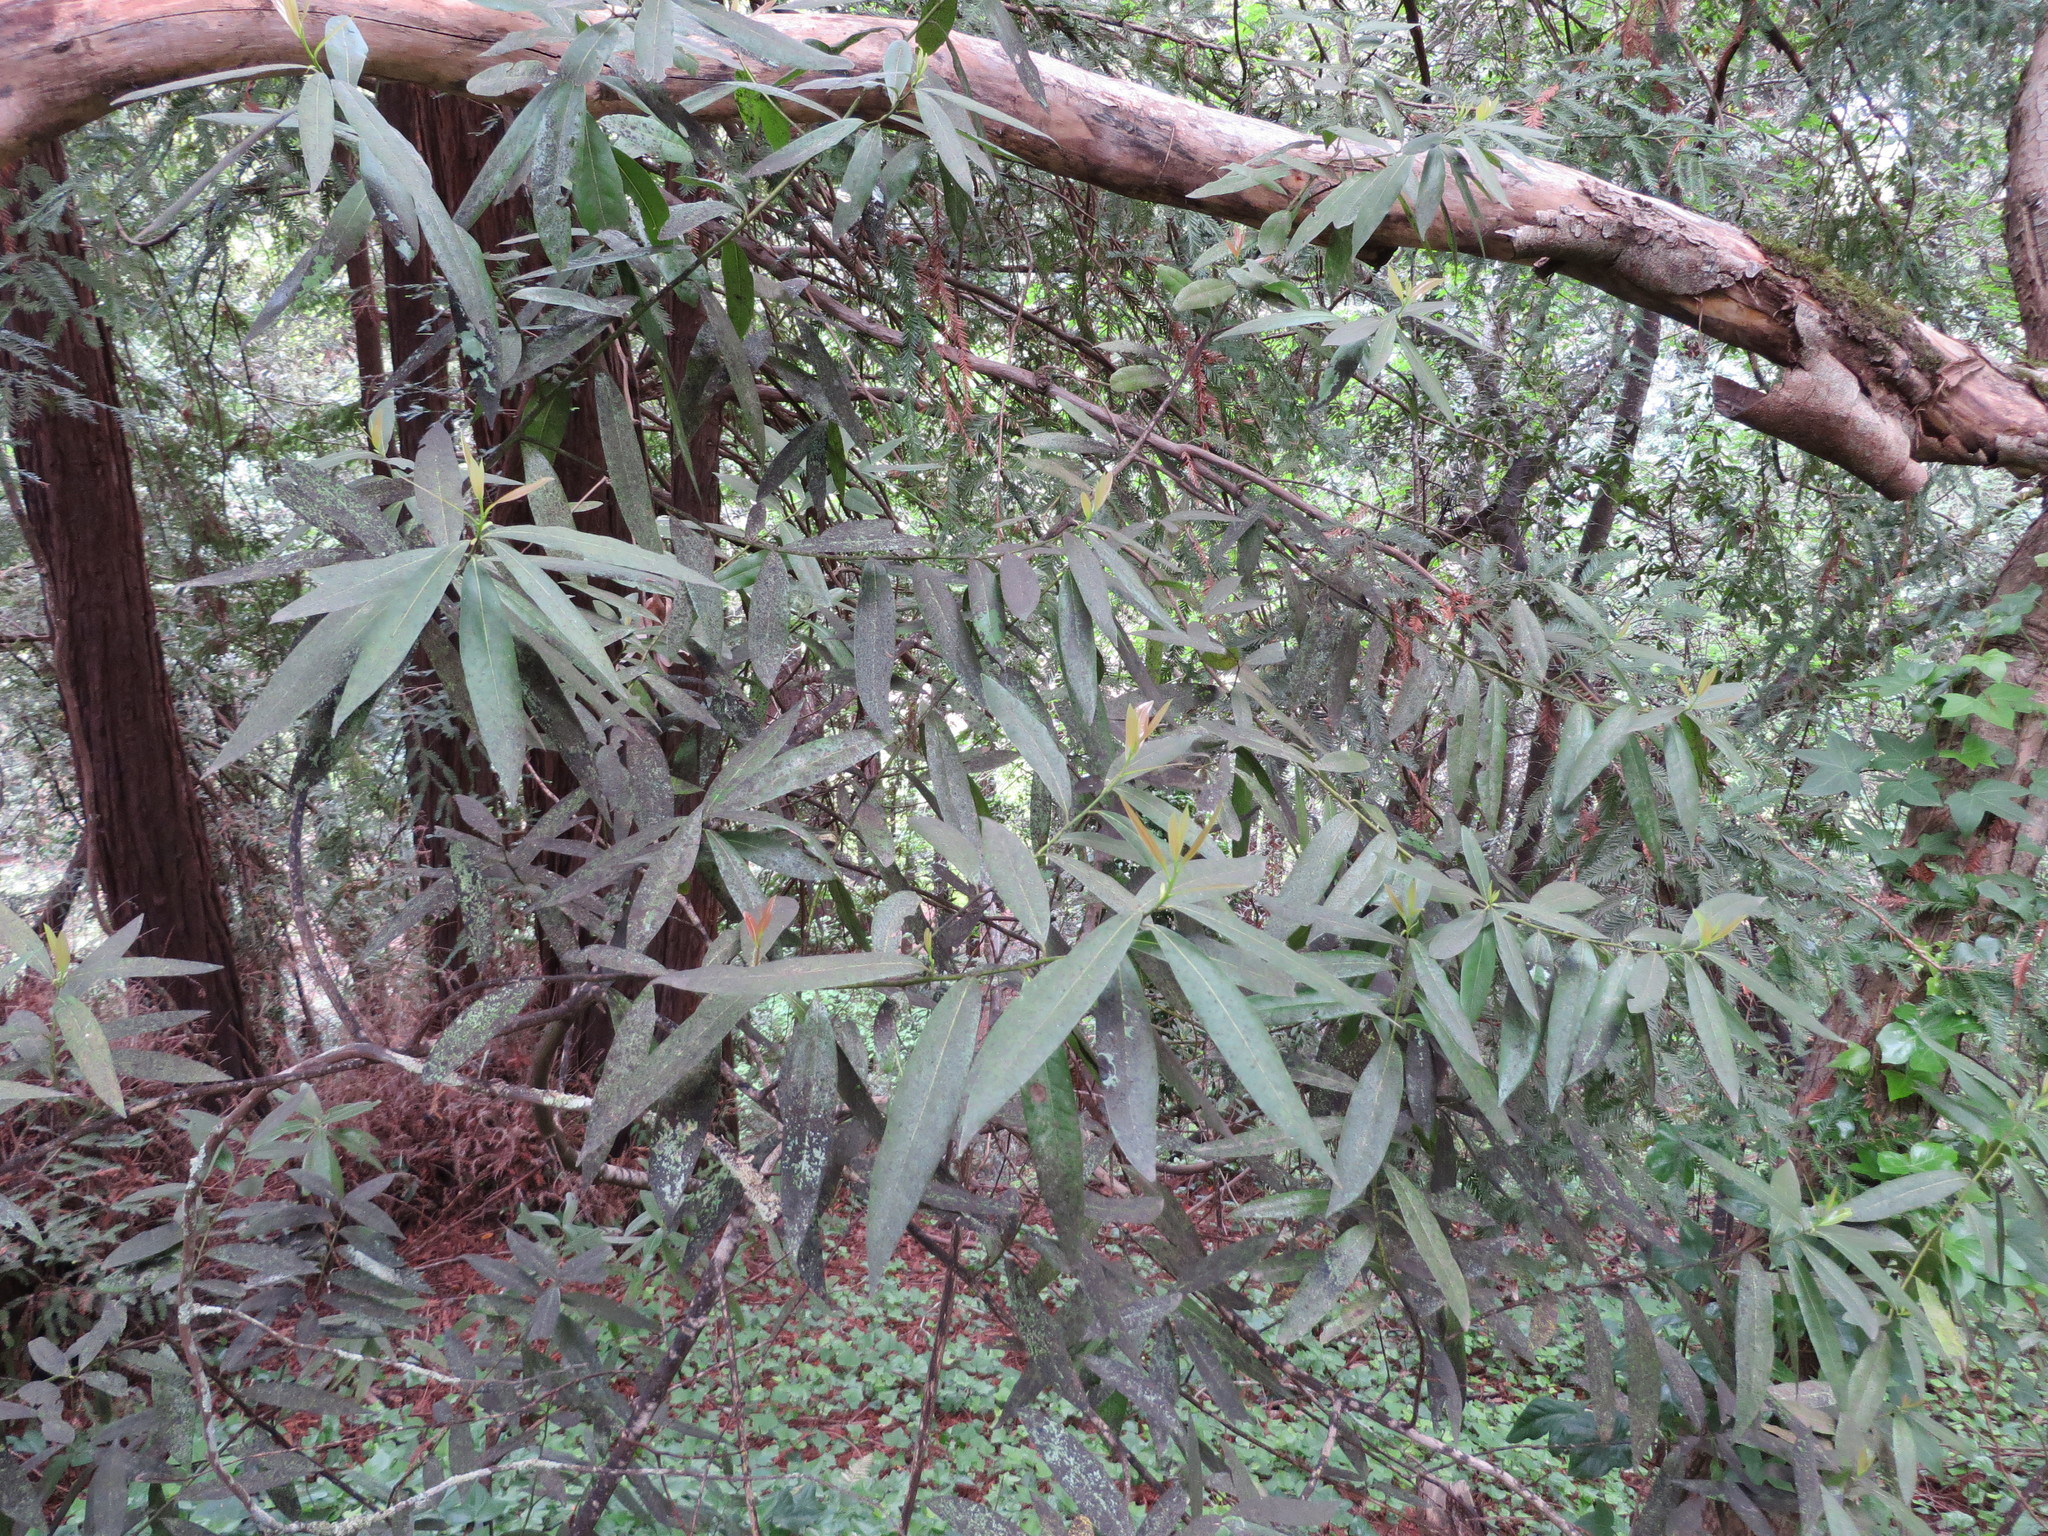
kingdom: Plantae
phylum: Tracheophyta
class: Magnoliopsida
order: Laurales
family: Lauraceae
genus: Umbellularia
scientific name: Umbellularia californica
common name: California bay
